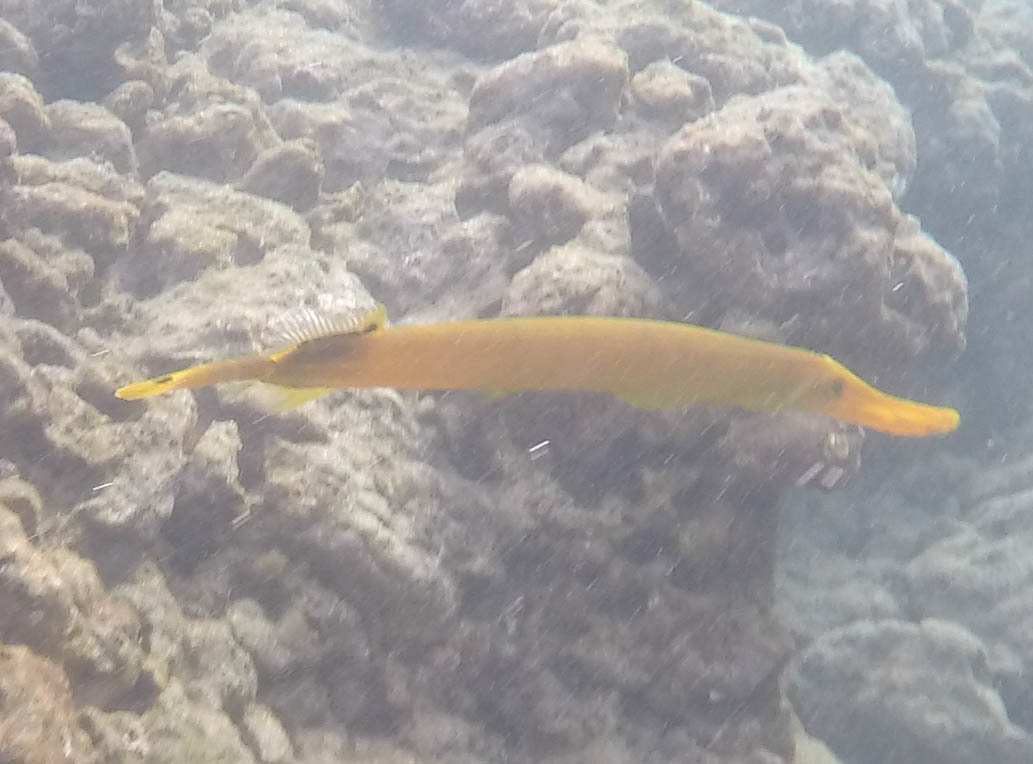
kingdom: Animalia
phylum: Chordata
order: Syngnathiformes
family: Aulostomidae
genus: Aulostomus
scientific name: Aulostomus chinensis
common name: Chinese trumpetfish
